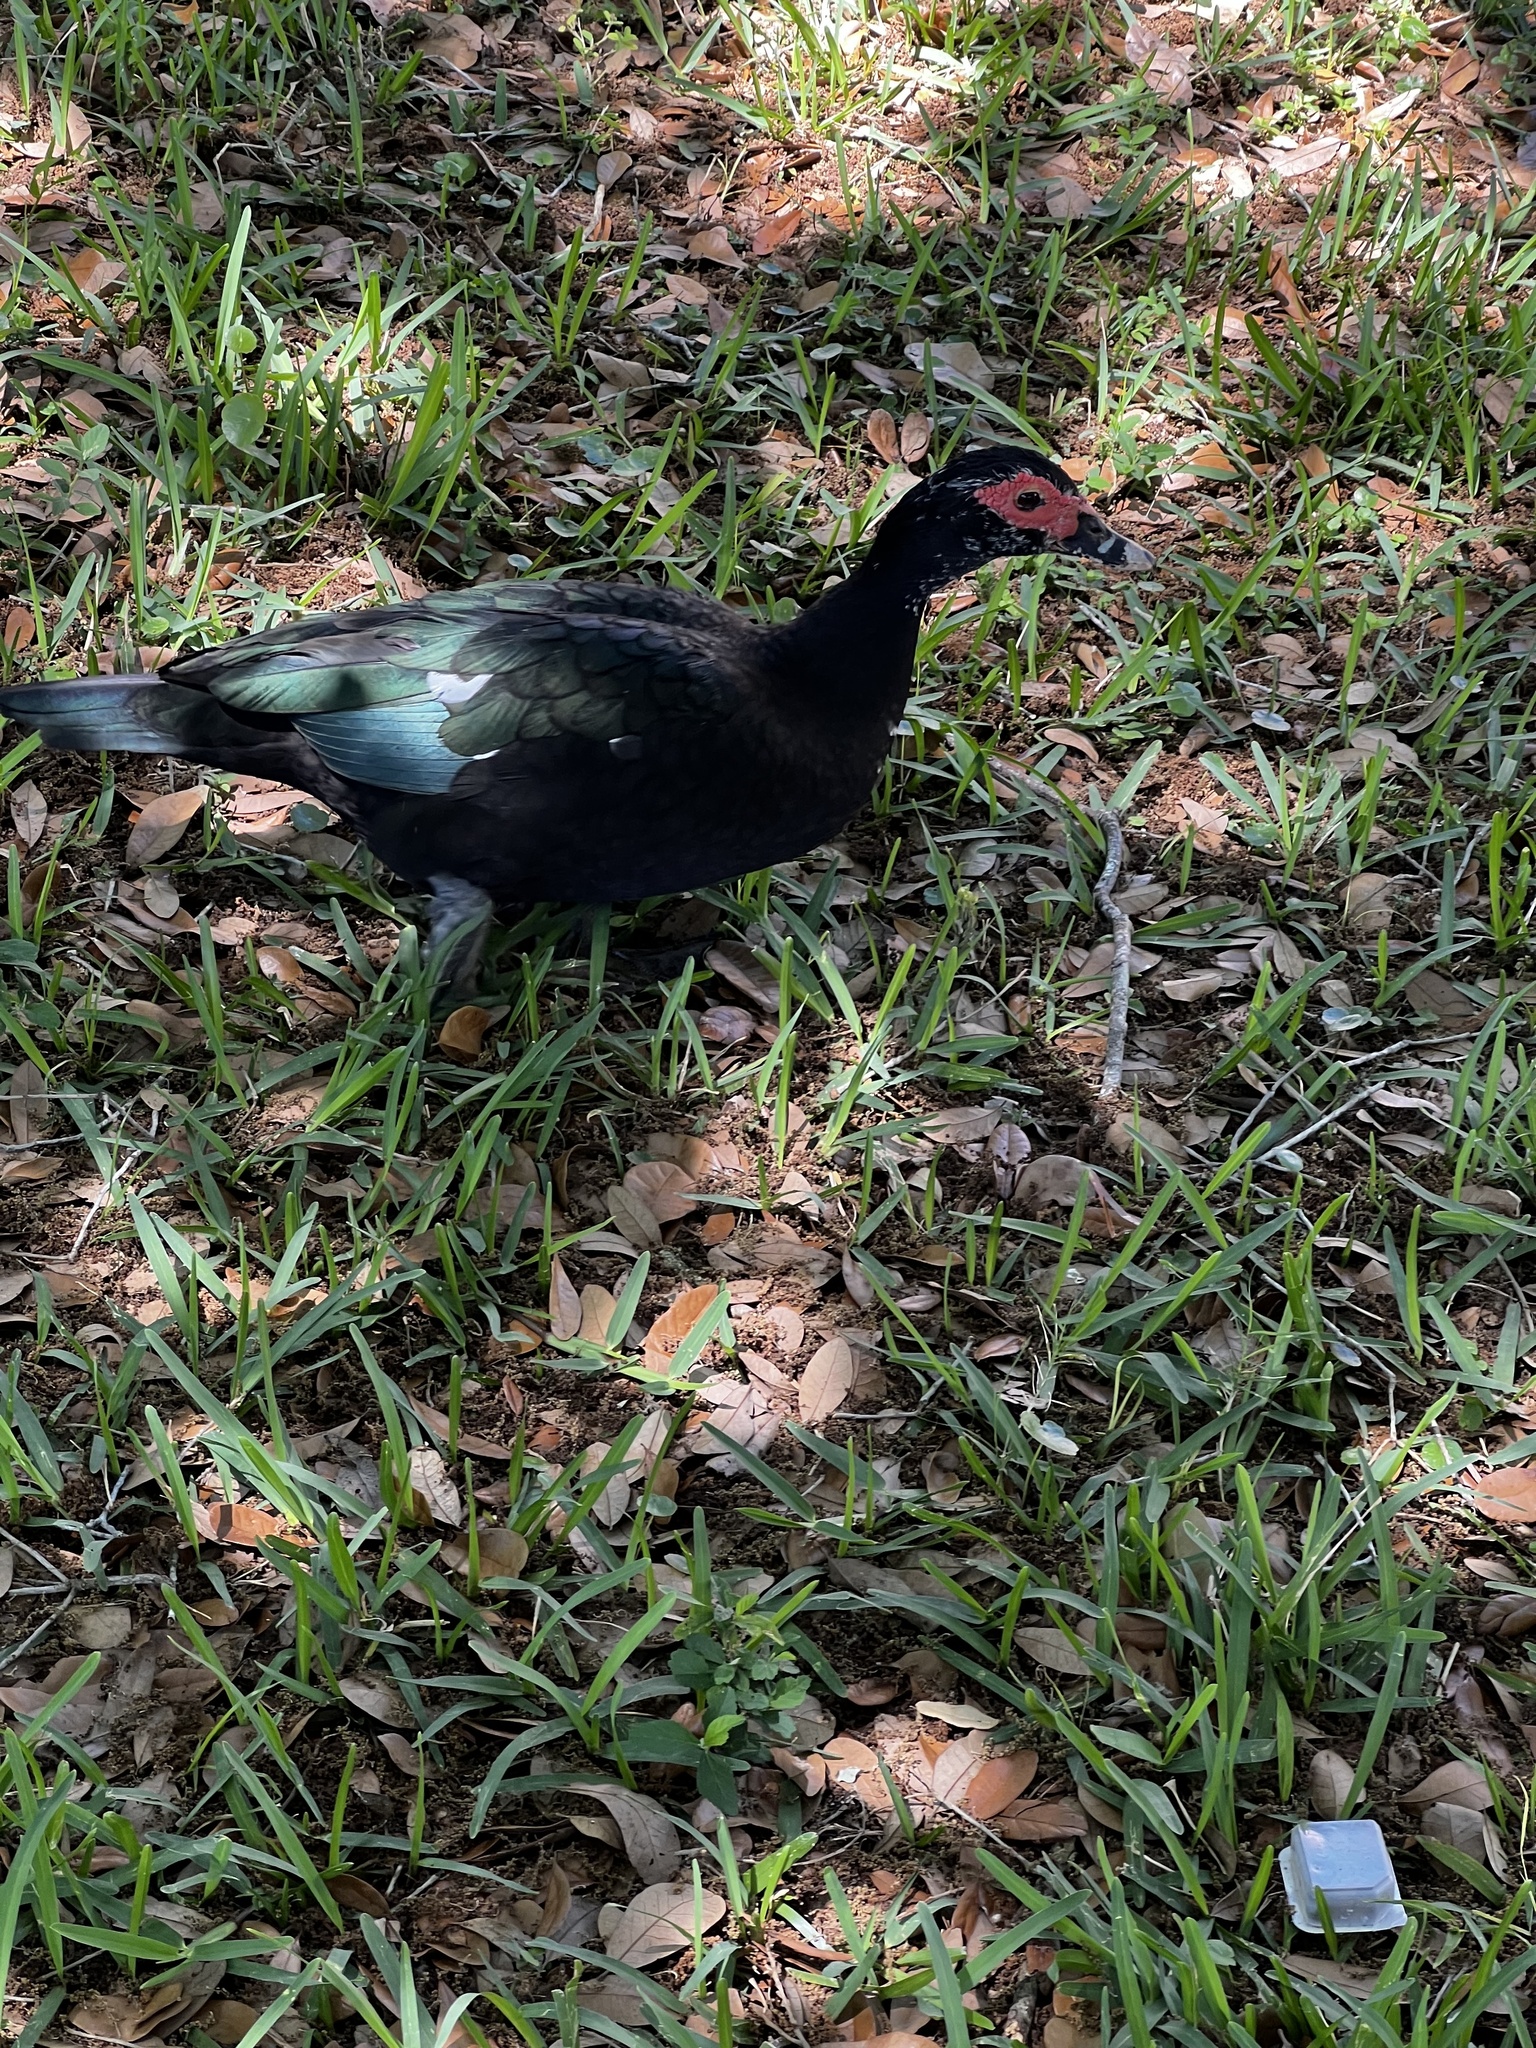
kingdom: Animalia
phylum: Chordata
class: Aves
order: Anseriformes
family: Anatidae
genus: Cairina
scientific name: Cairina moschata
